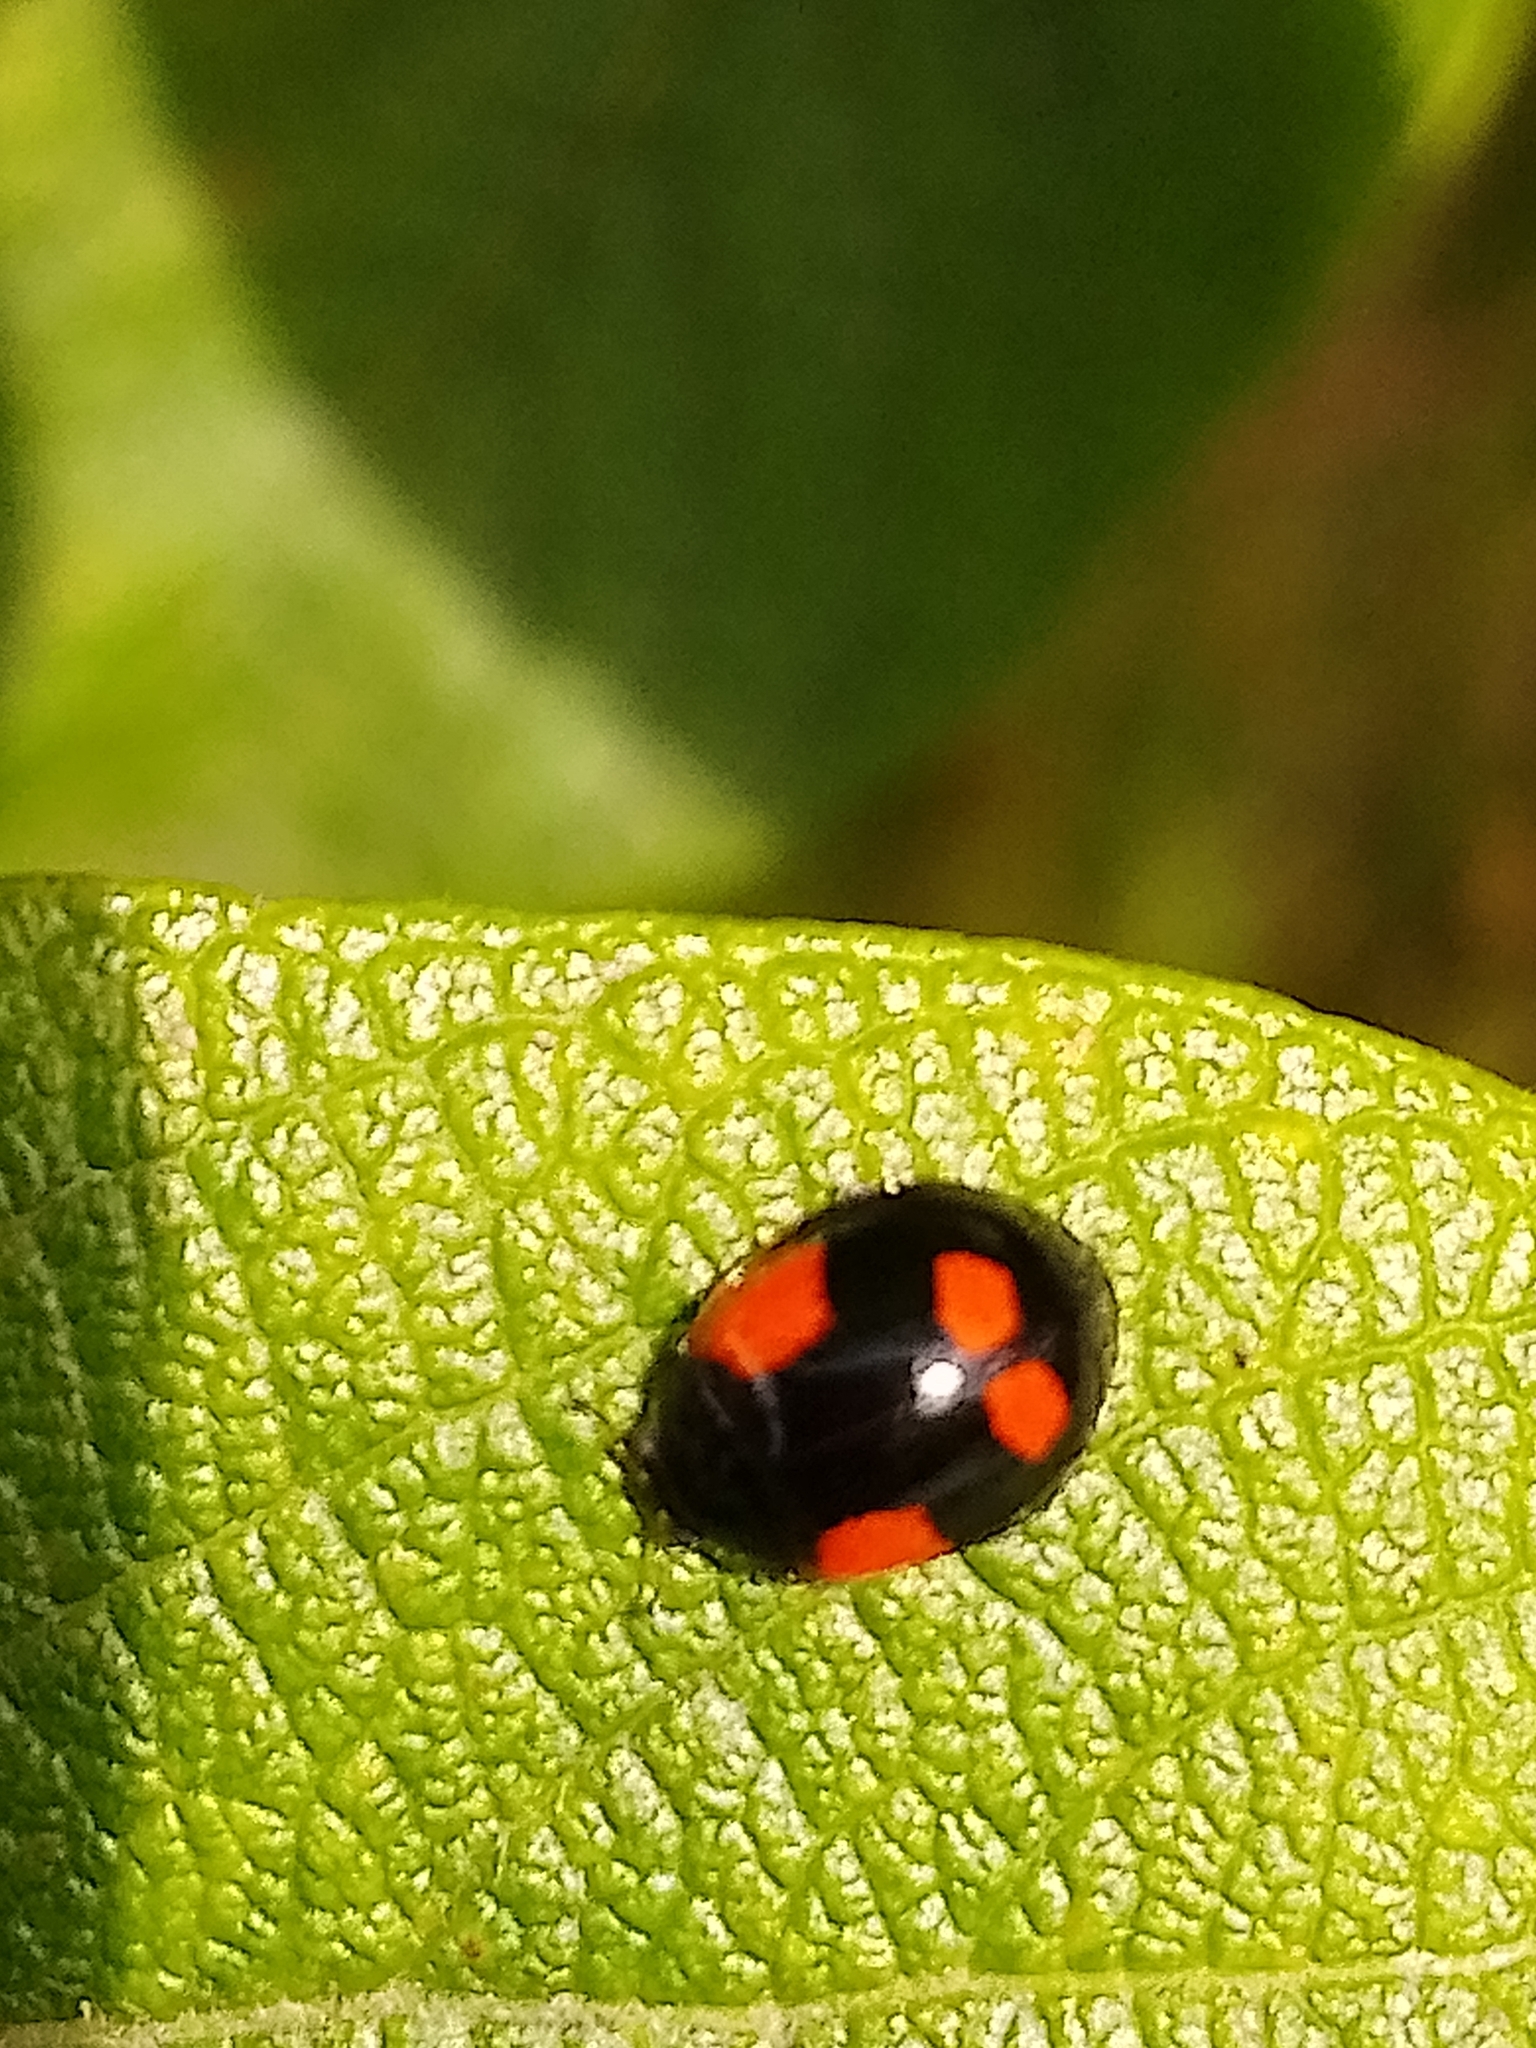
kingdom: Animalia
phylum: Arthropoda
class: Insecta
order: Coleoptera
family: Coccinellidae
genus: Adalia
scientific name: Adalia bipunctata
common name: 2-spot ladybird
